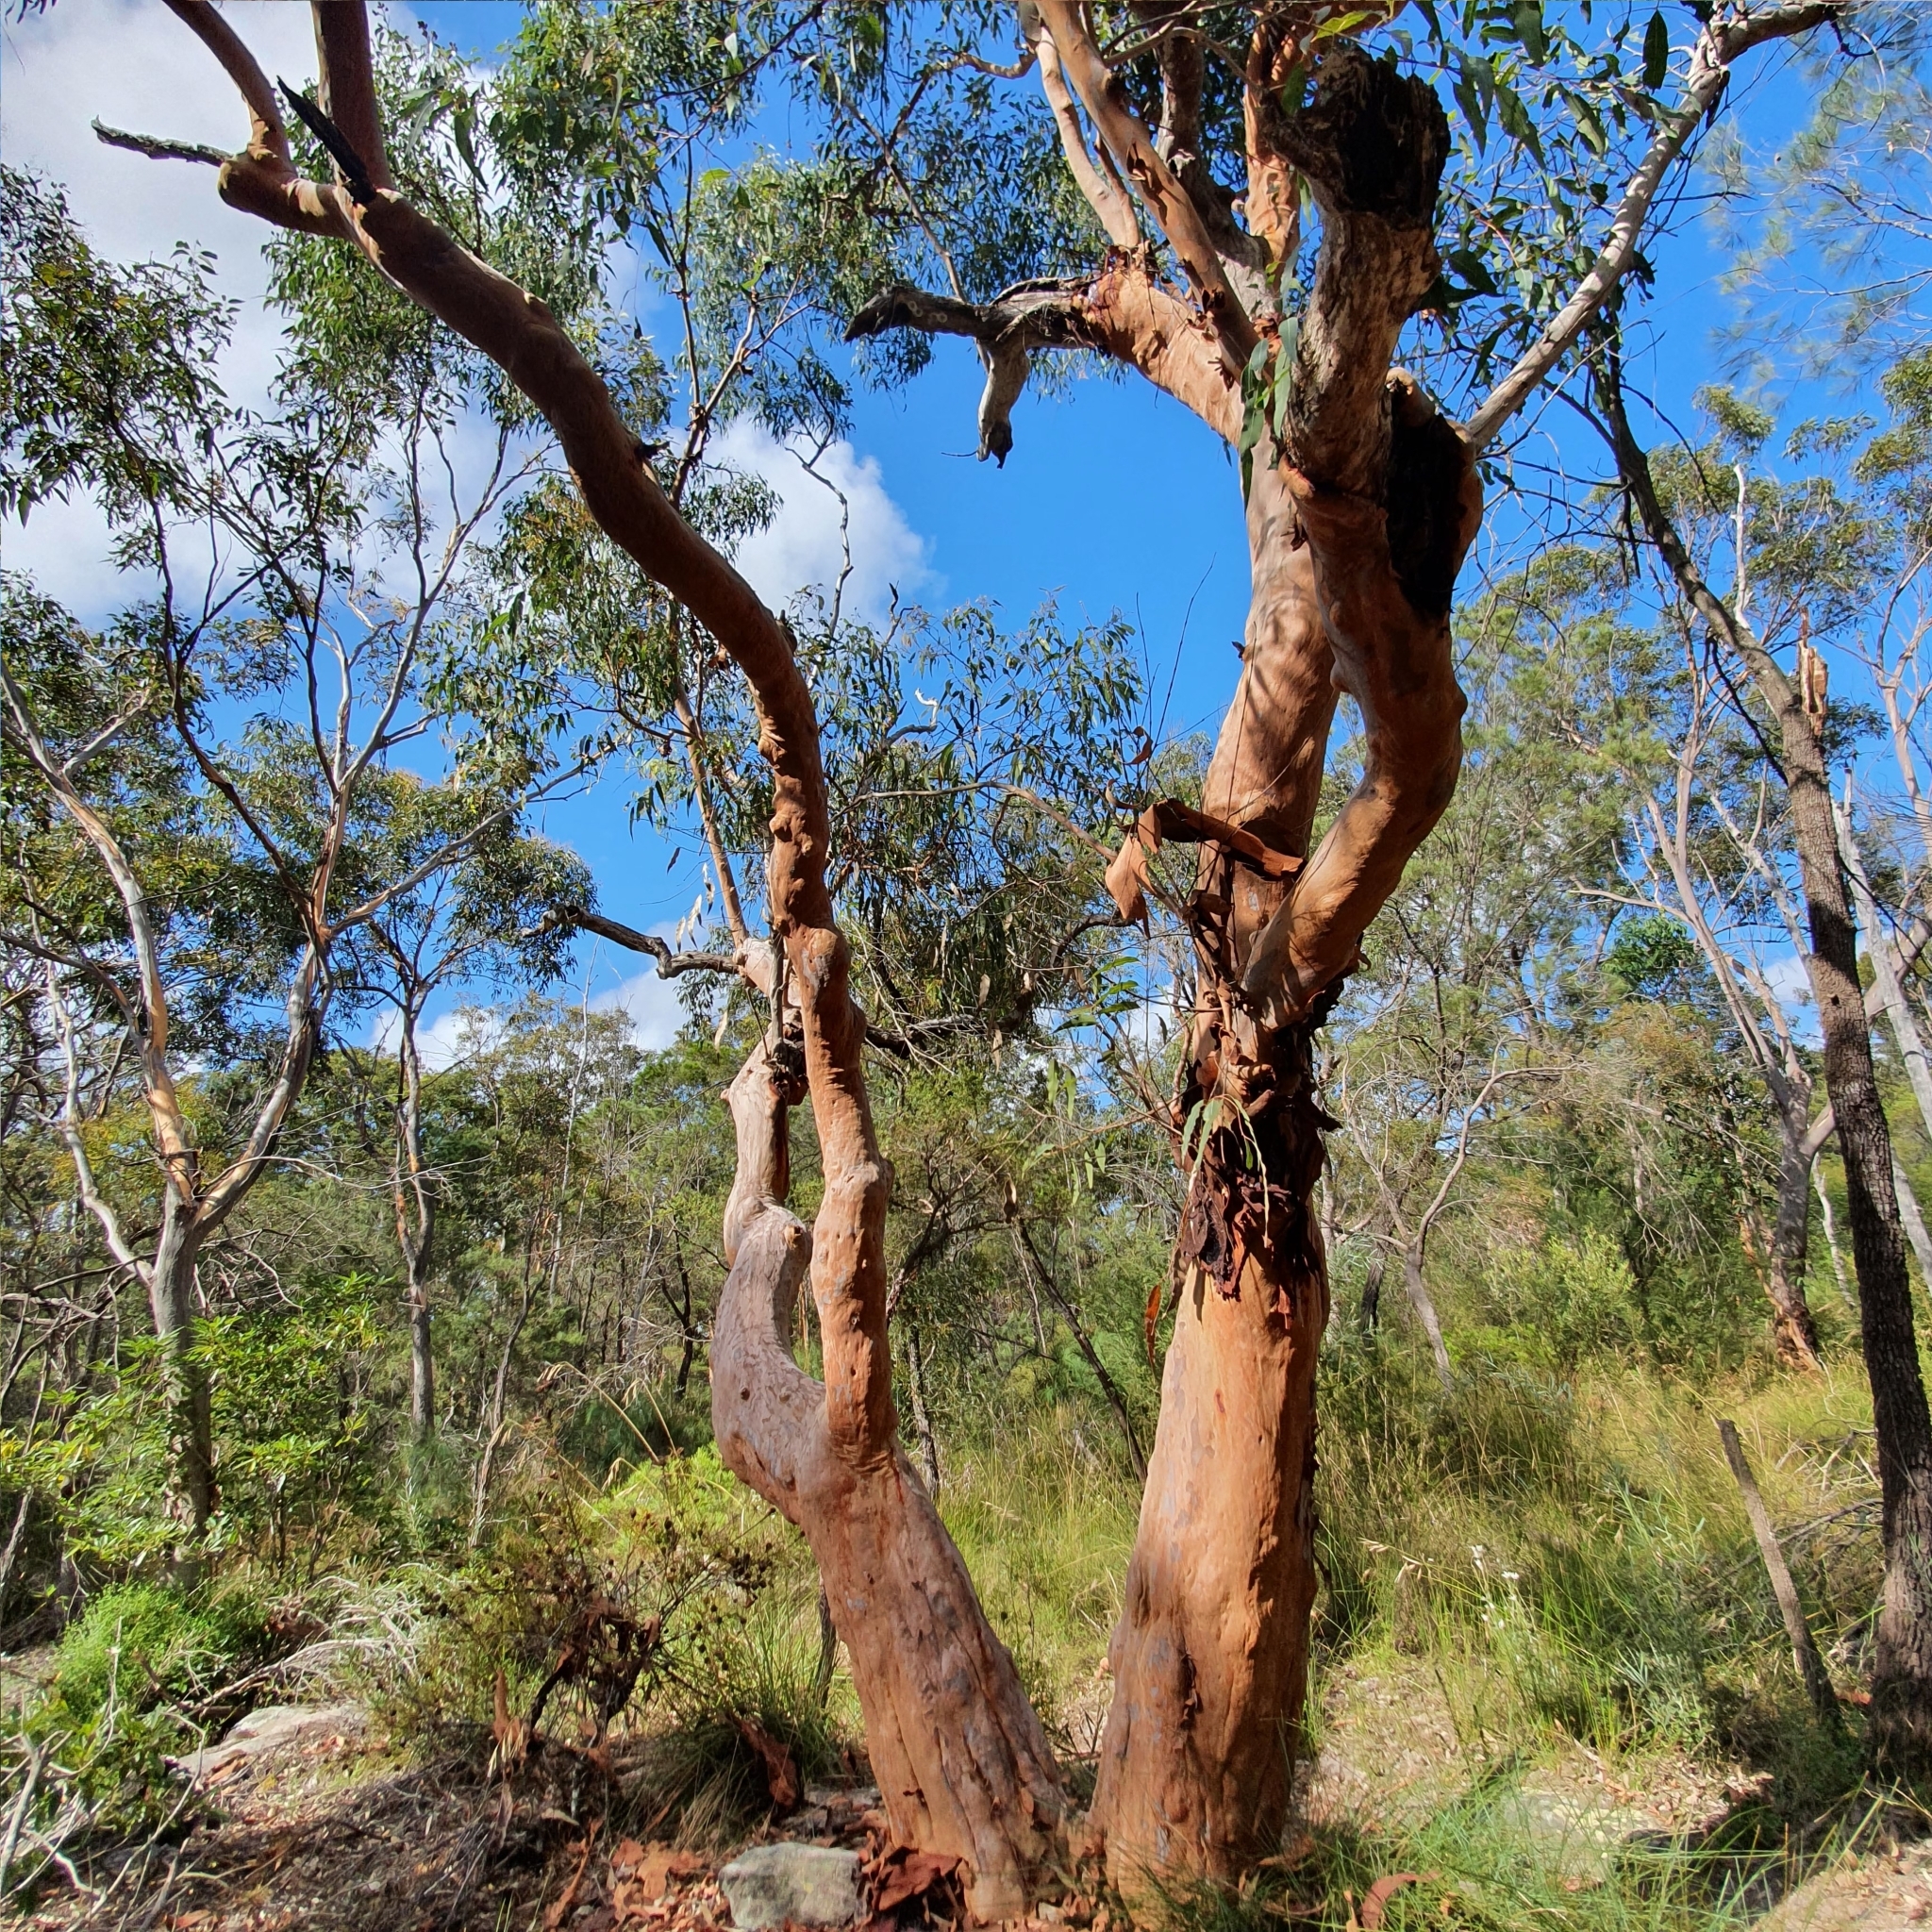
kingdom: Plantae
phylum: Tracheophyta
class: Magnoliopsida
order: Myrtales
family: Myrtaceae
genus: Angophora
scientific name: Angophora costata
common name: Gum myrtle
